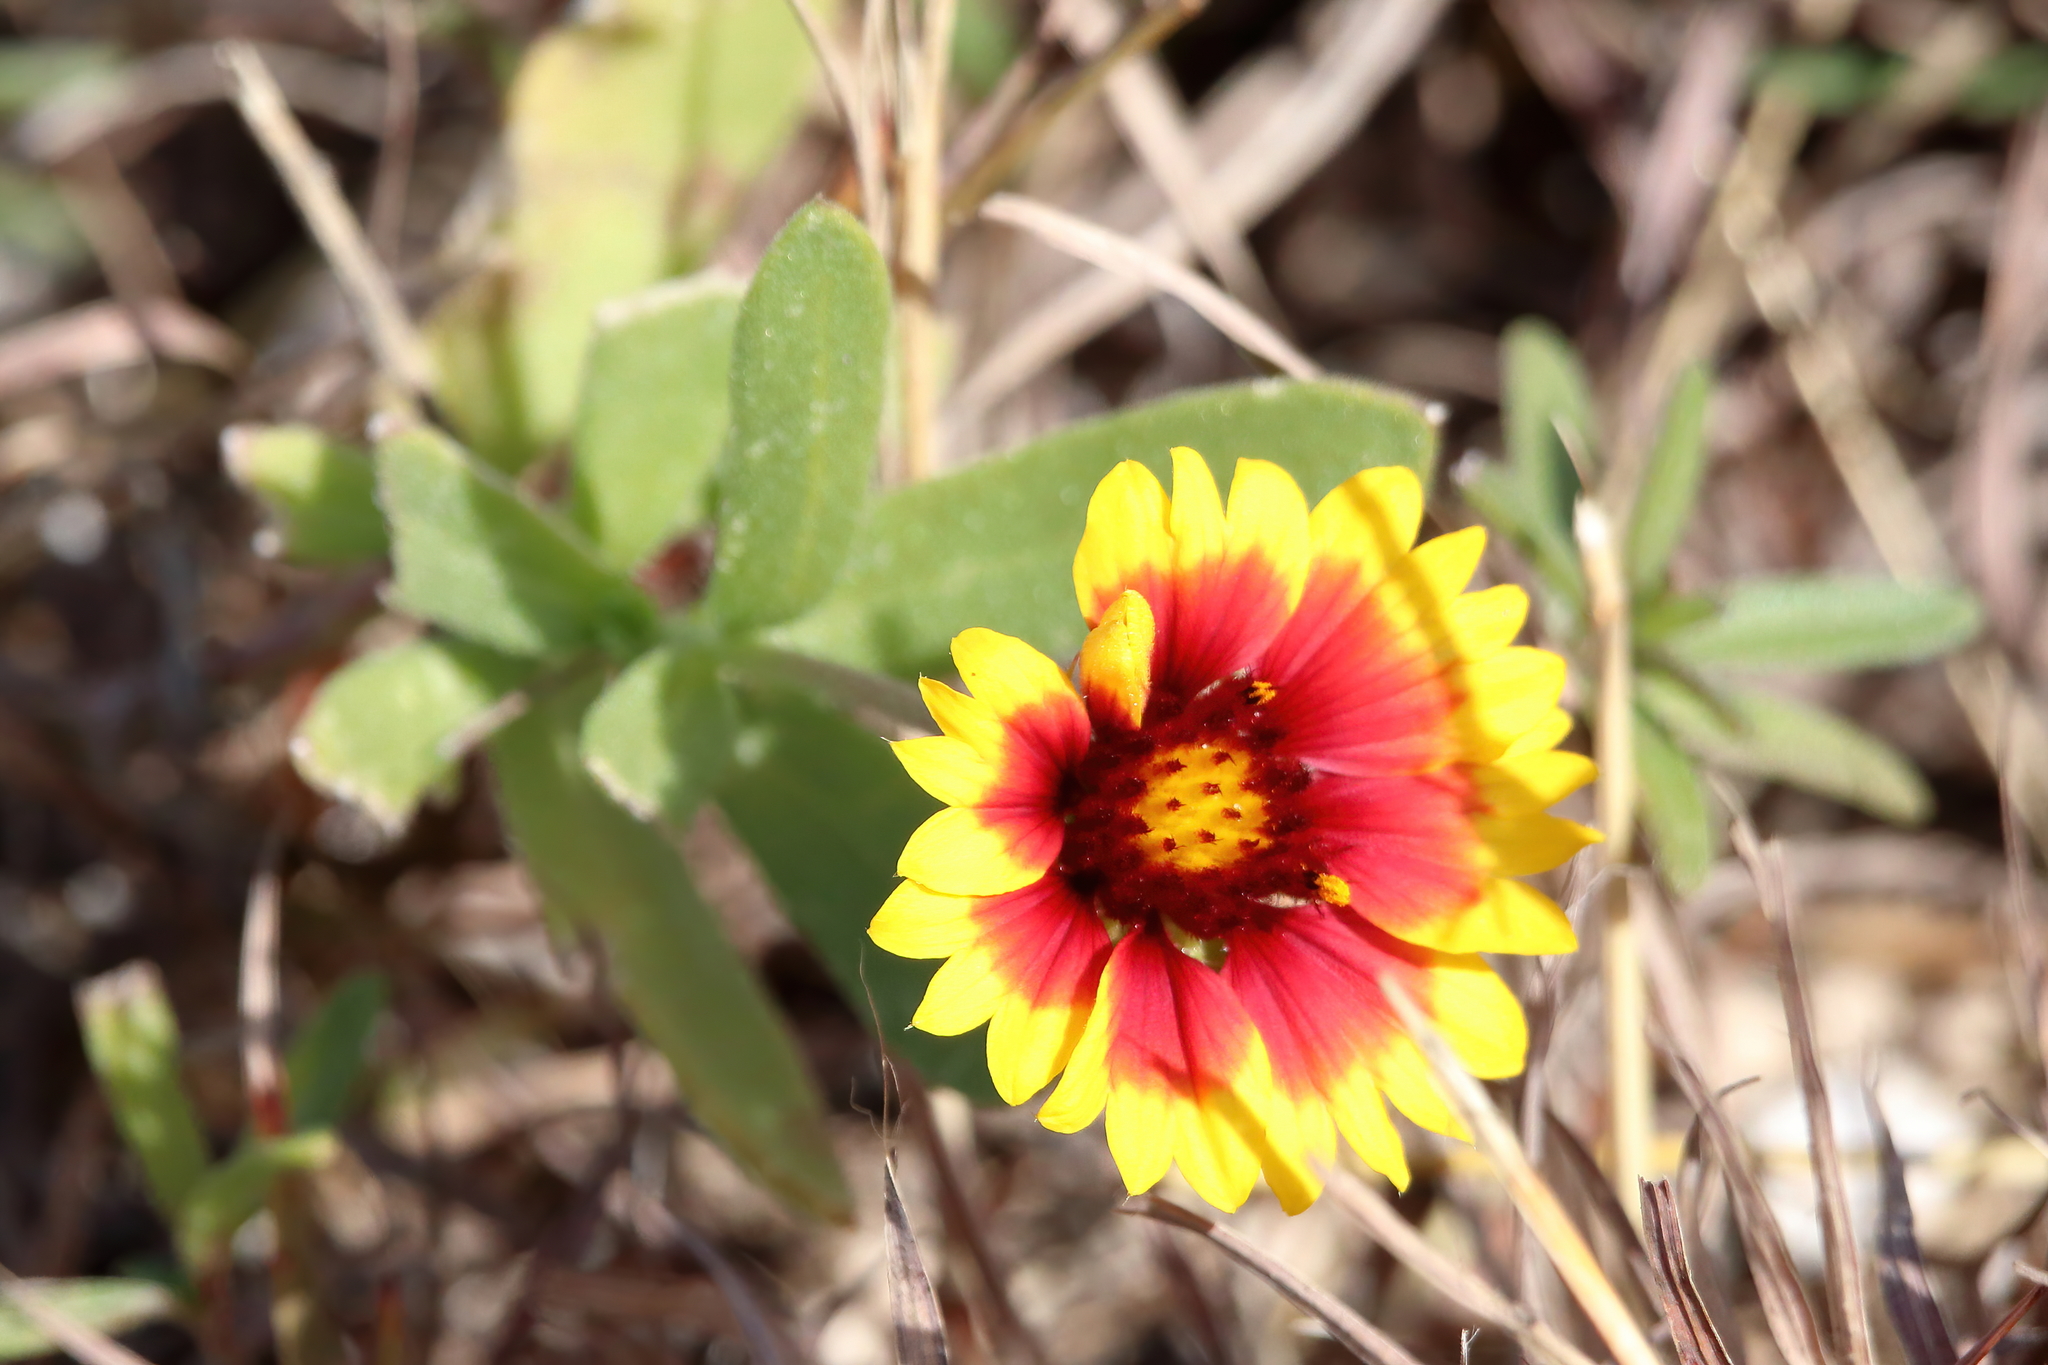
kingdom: Plantae
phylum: Tracheophyta
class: Magnoliopsida
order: Asterales
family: Asteraceae
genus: Gaillardia
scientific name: Gaillardia pulchella
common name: Firewheel
